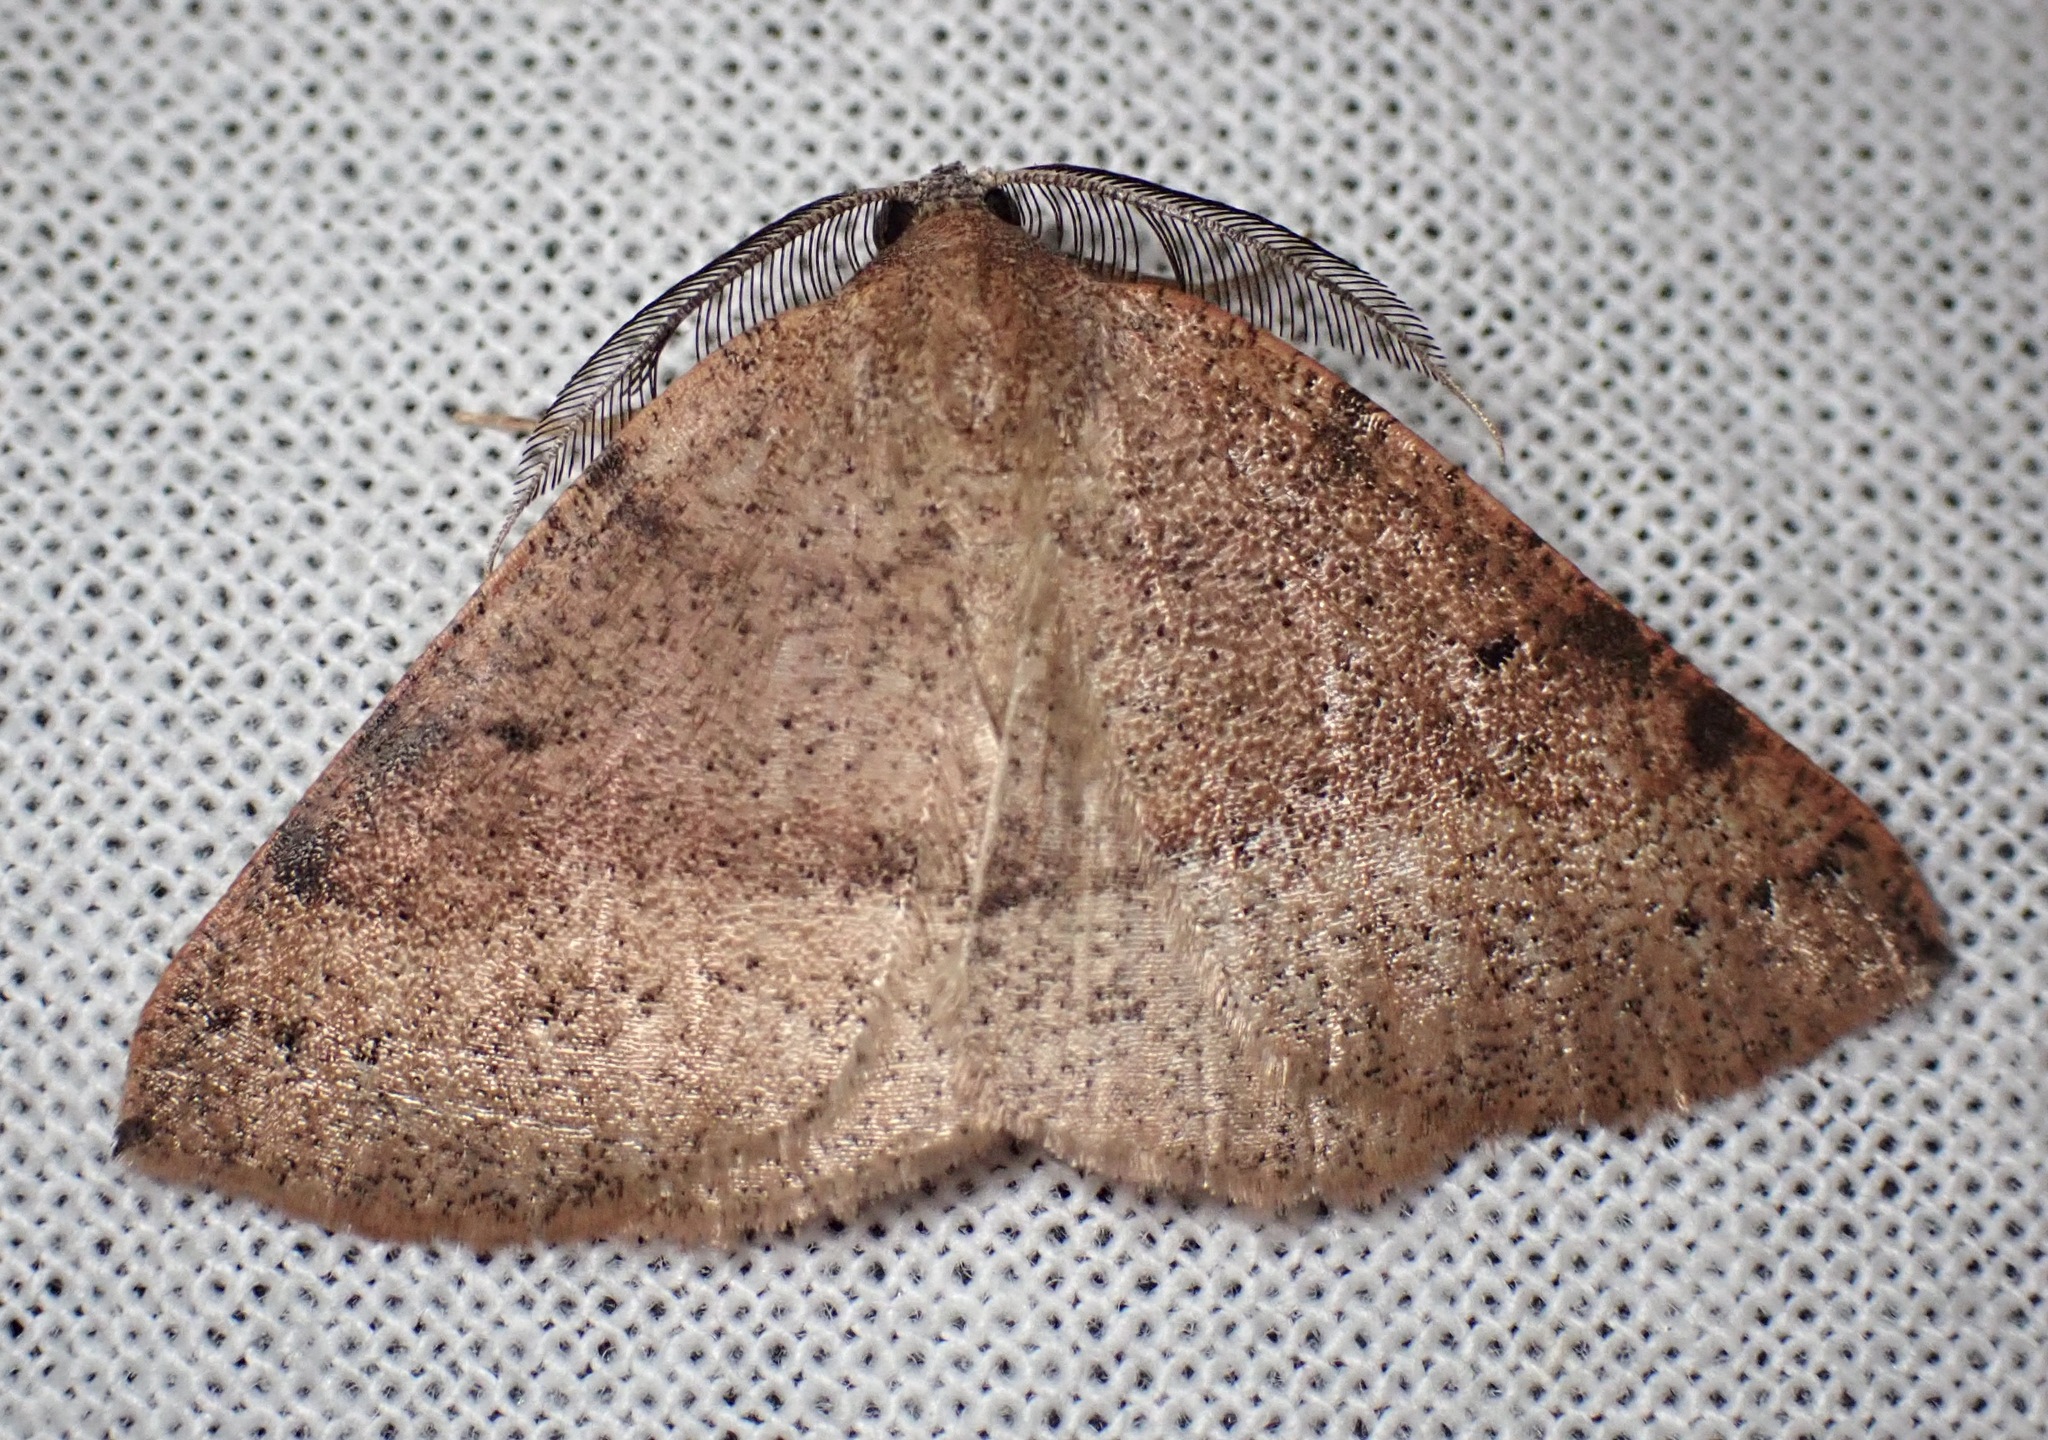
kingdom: Animalia
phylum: Arthropoda
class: Insecta
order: Lepidoptera
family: Geometridae
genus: Drepanulatrix
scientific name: Drepanulatrix hulstii
